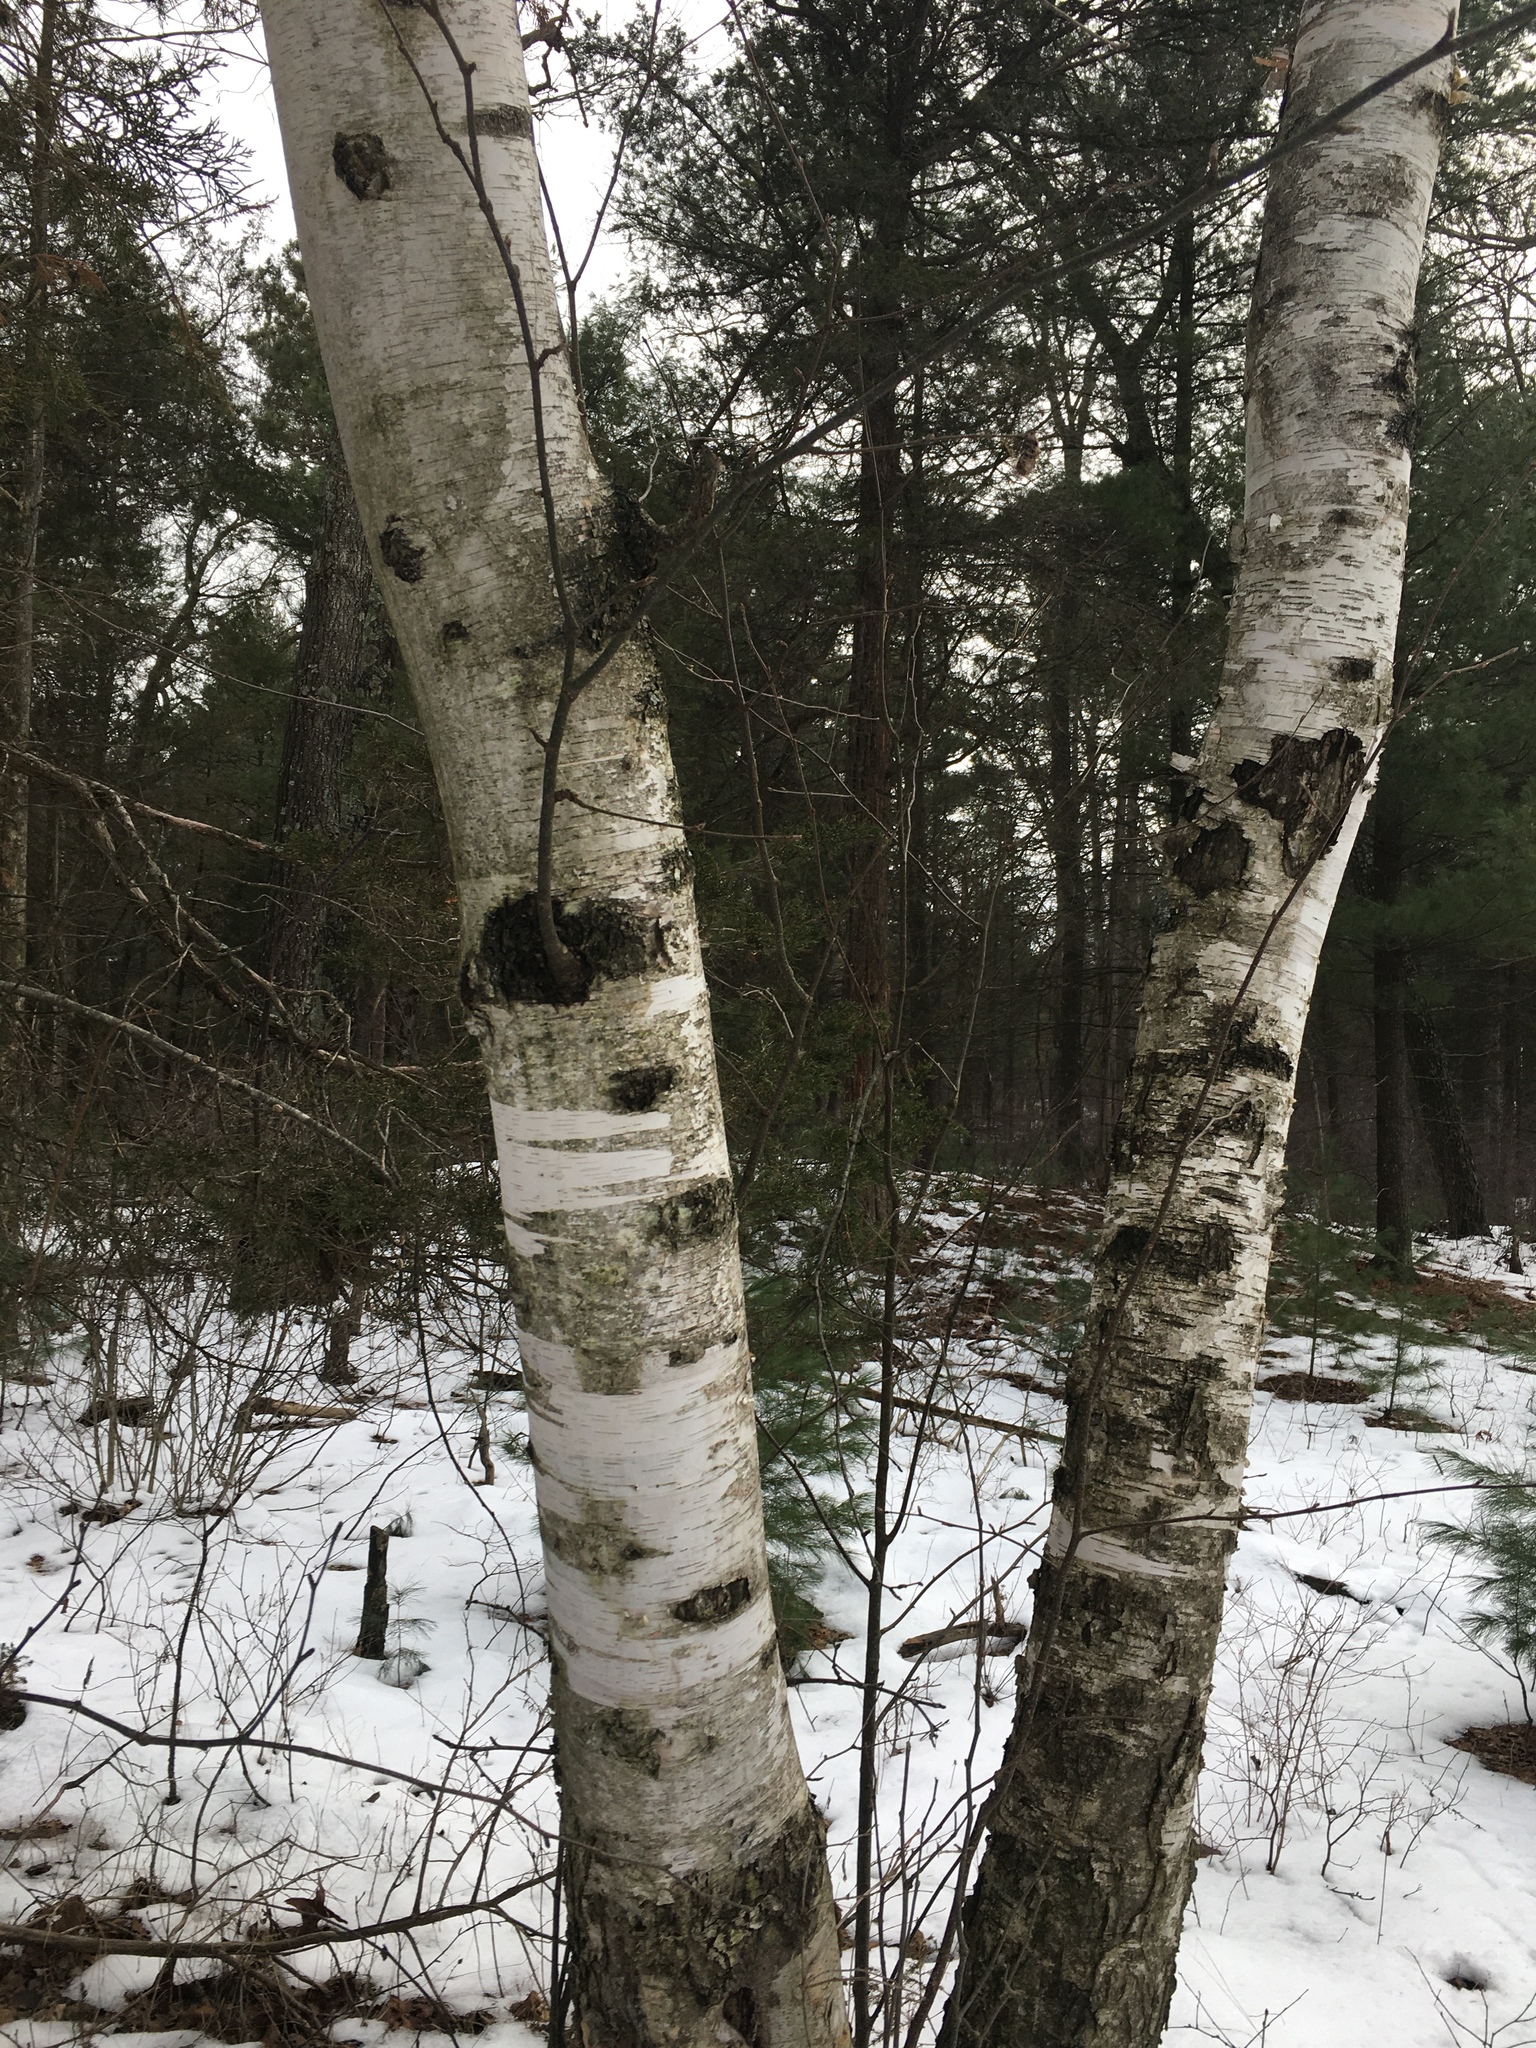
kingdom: Plantae
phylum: Tracheophyta
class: Magnoliopsida
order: Fagales
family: Betulaceae
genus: Betula
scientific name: Betula papyrifera
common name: Paper birch
